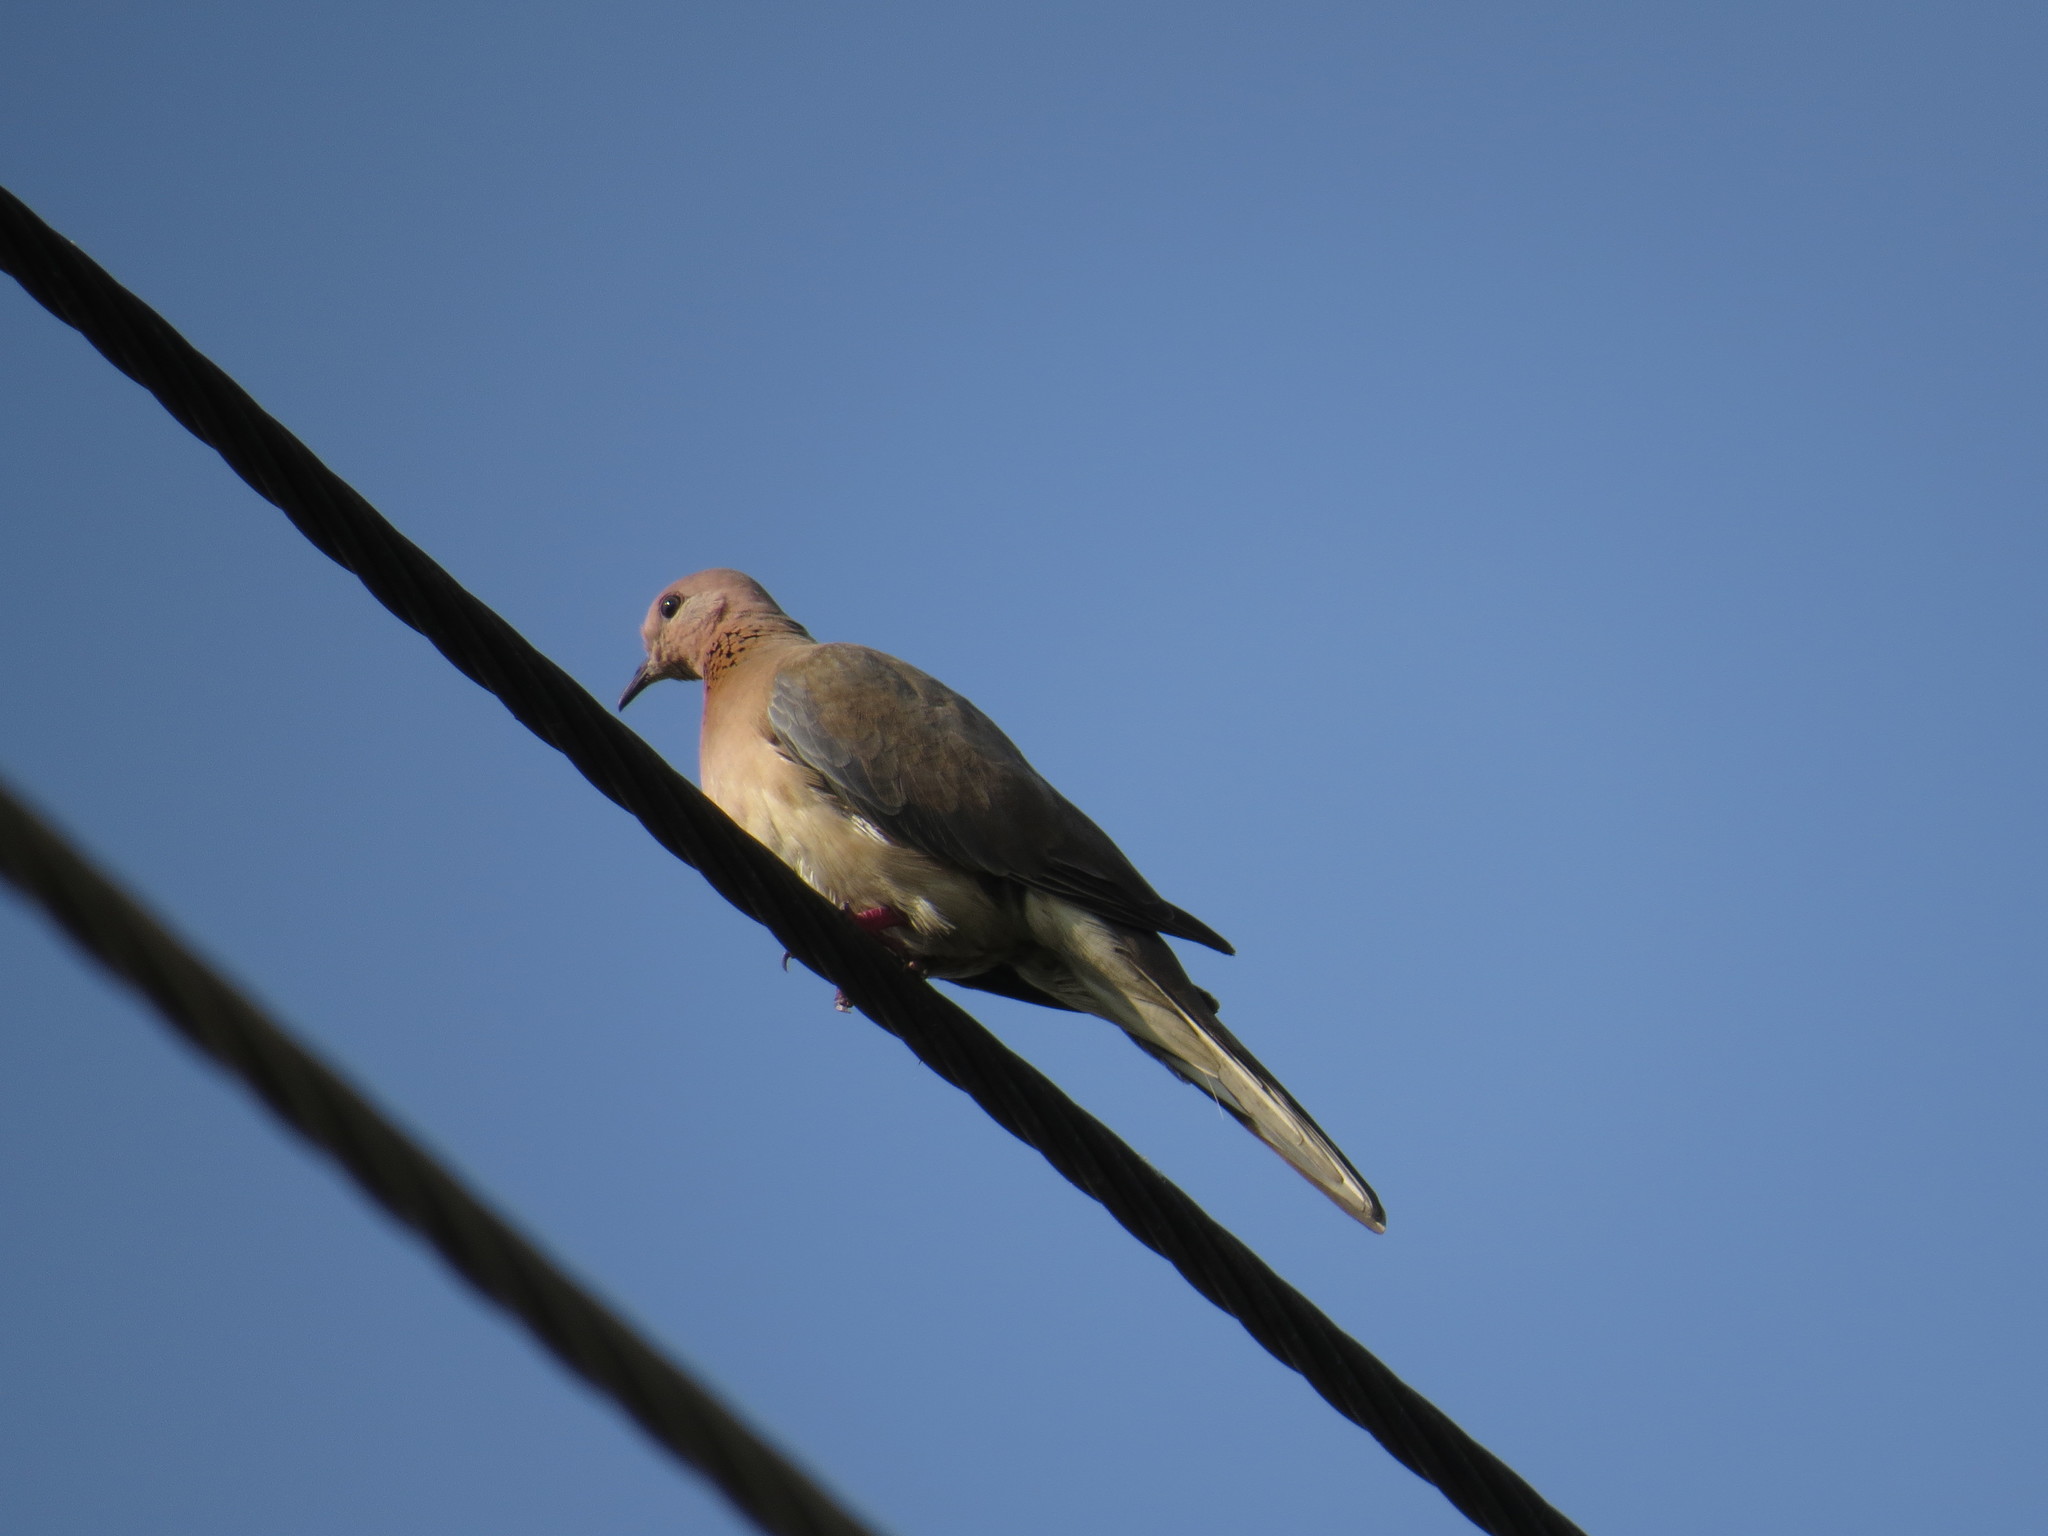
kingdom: Animalia
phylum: Chordata
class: Aves
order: Columbiformes
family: Columbidae
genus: Spilopelia
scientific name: Spilopelia senegalensis
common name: Laughing dove
